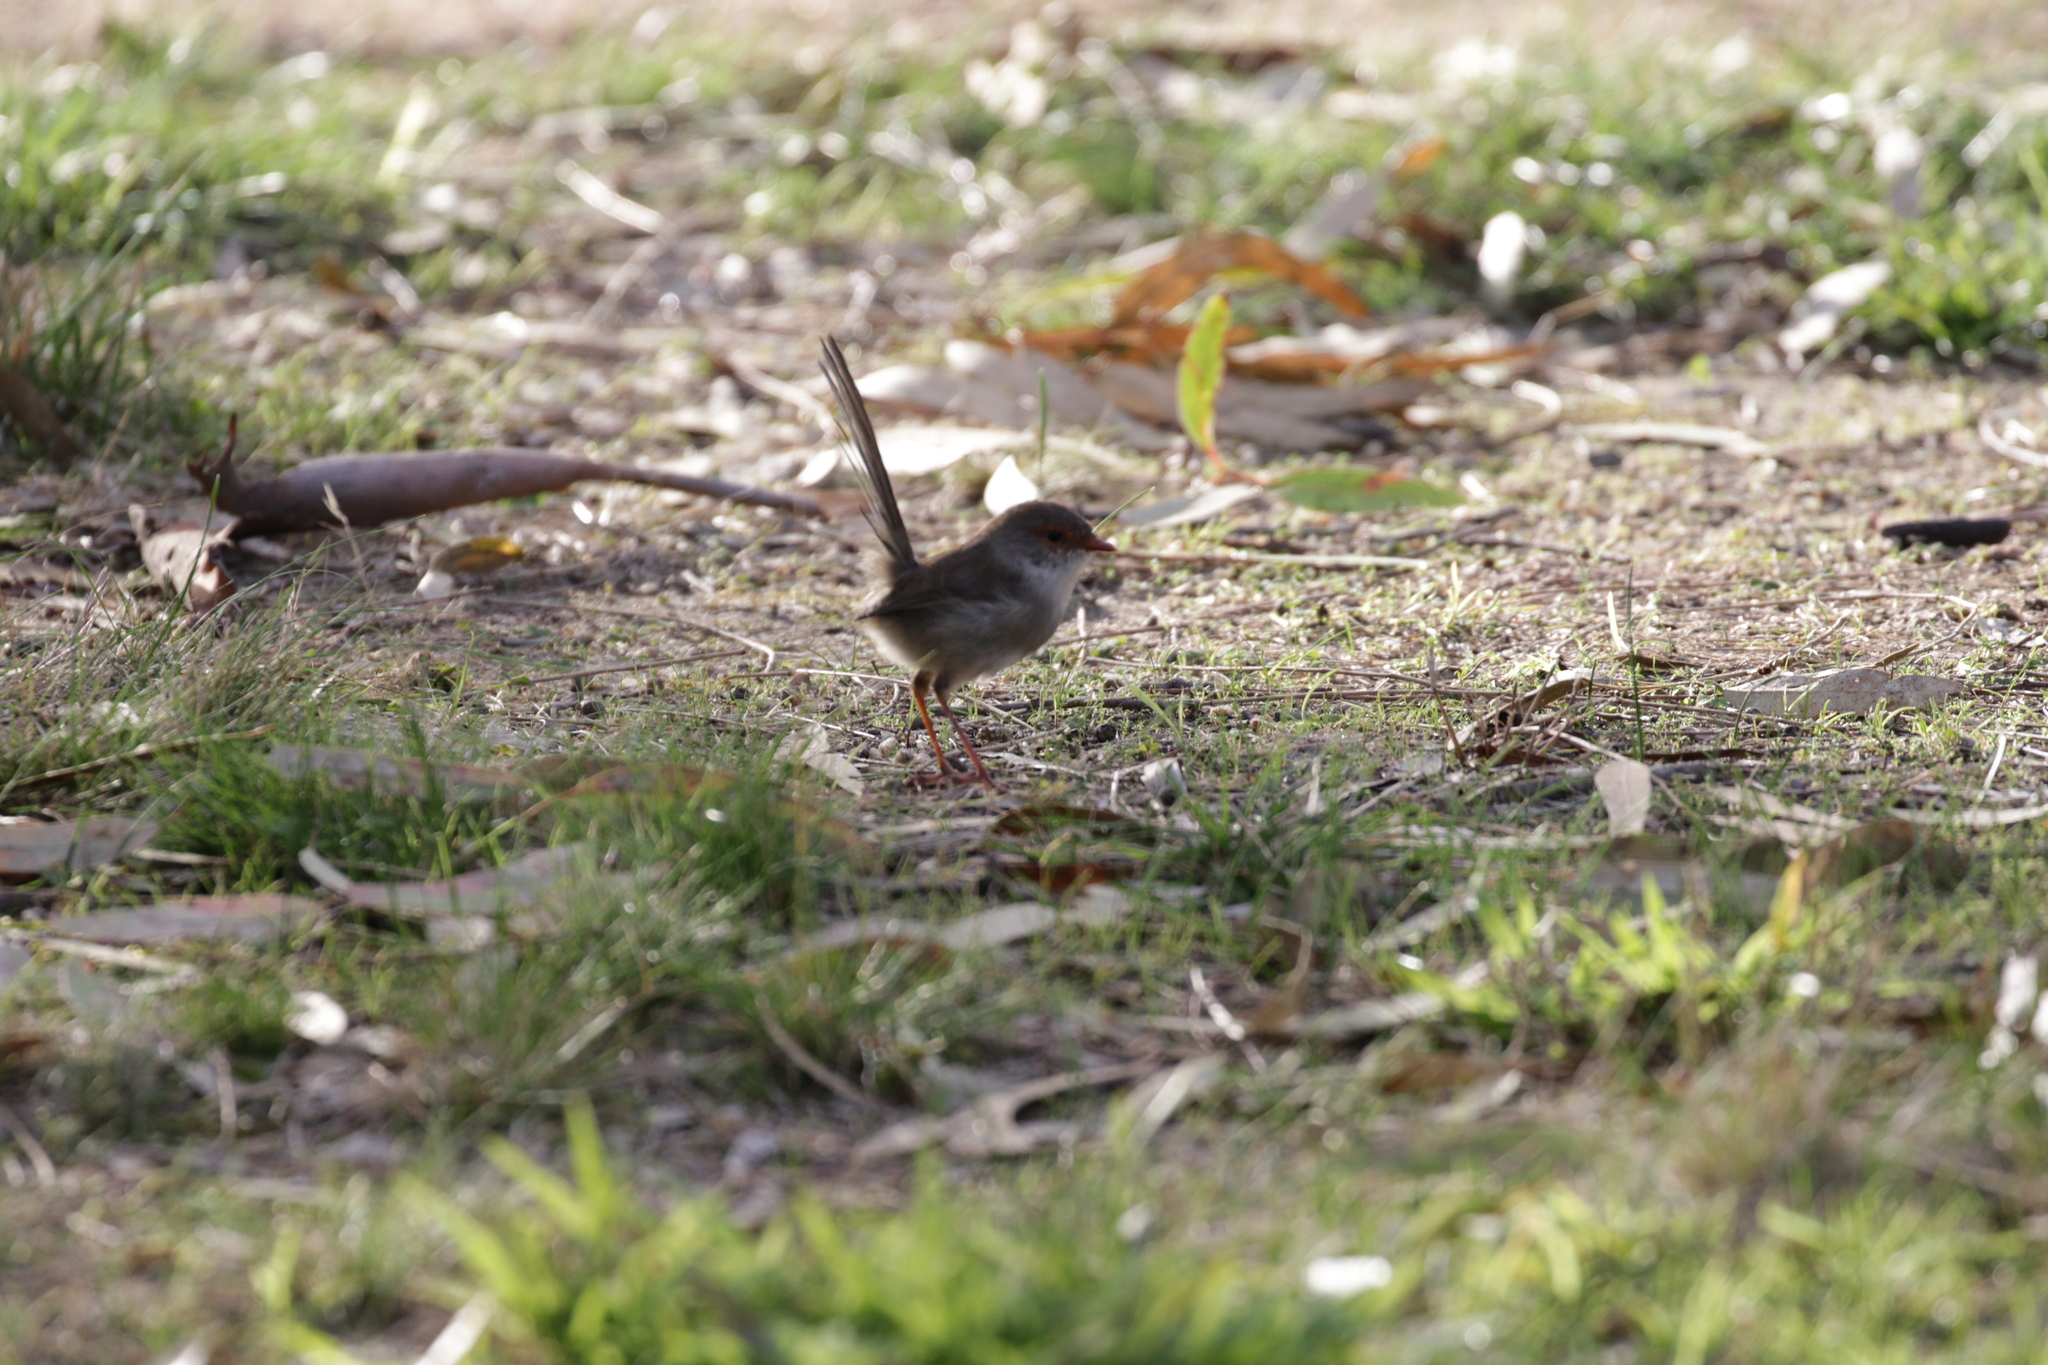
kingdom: Animalia
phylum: Chordata
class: Aves
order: Passeriformes
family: Maluridae
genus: Malurus
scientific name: Malurus cyaneus
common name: Superb fairywren
